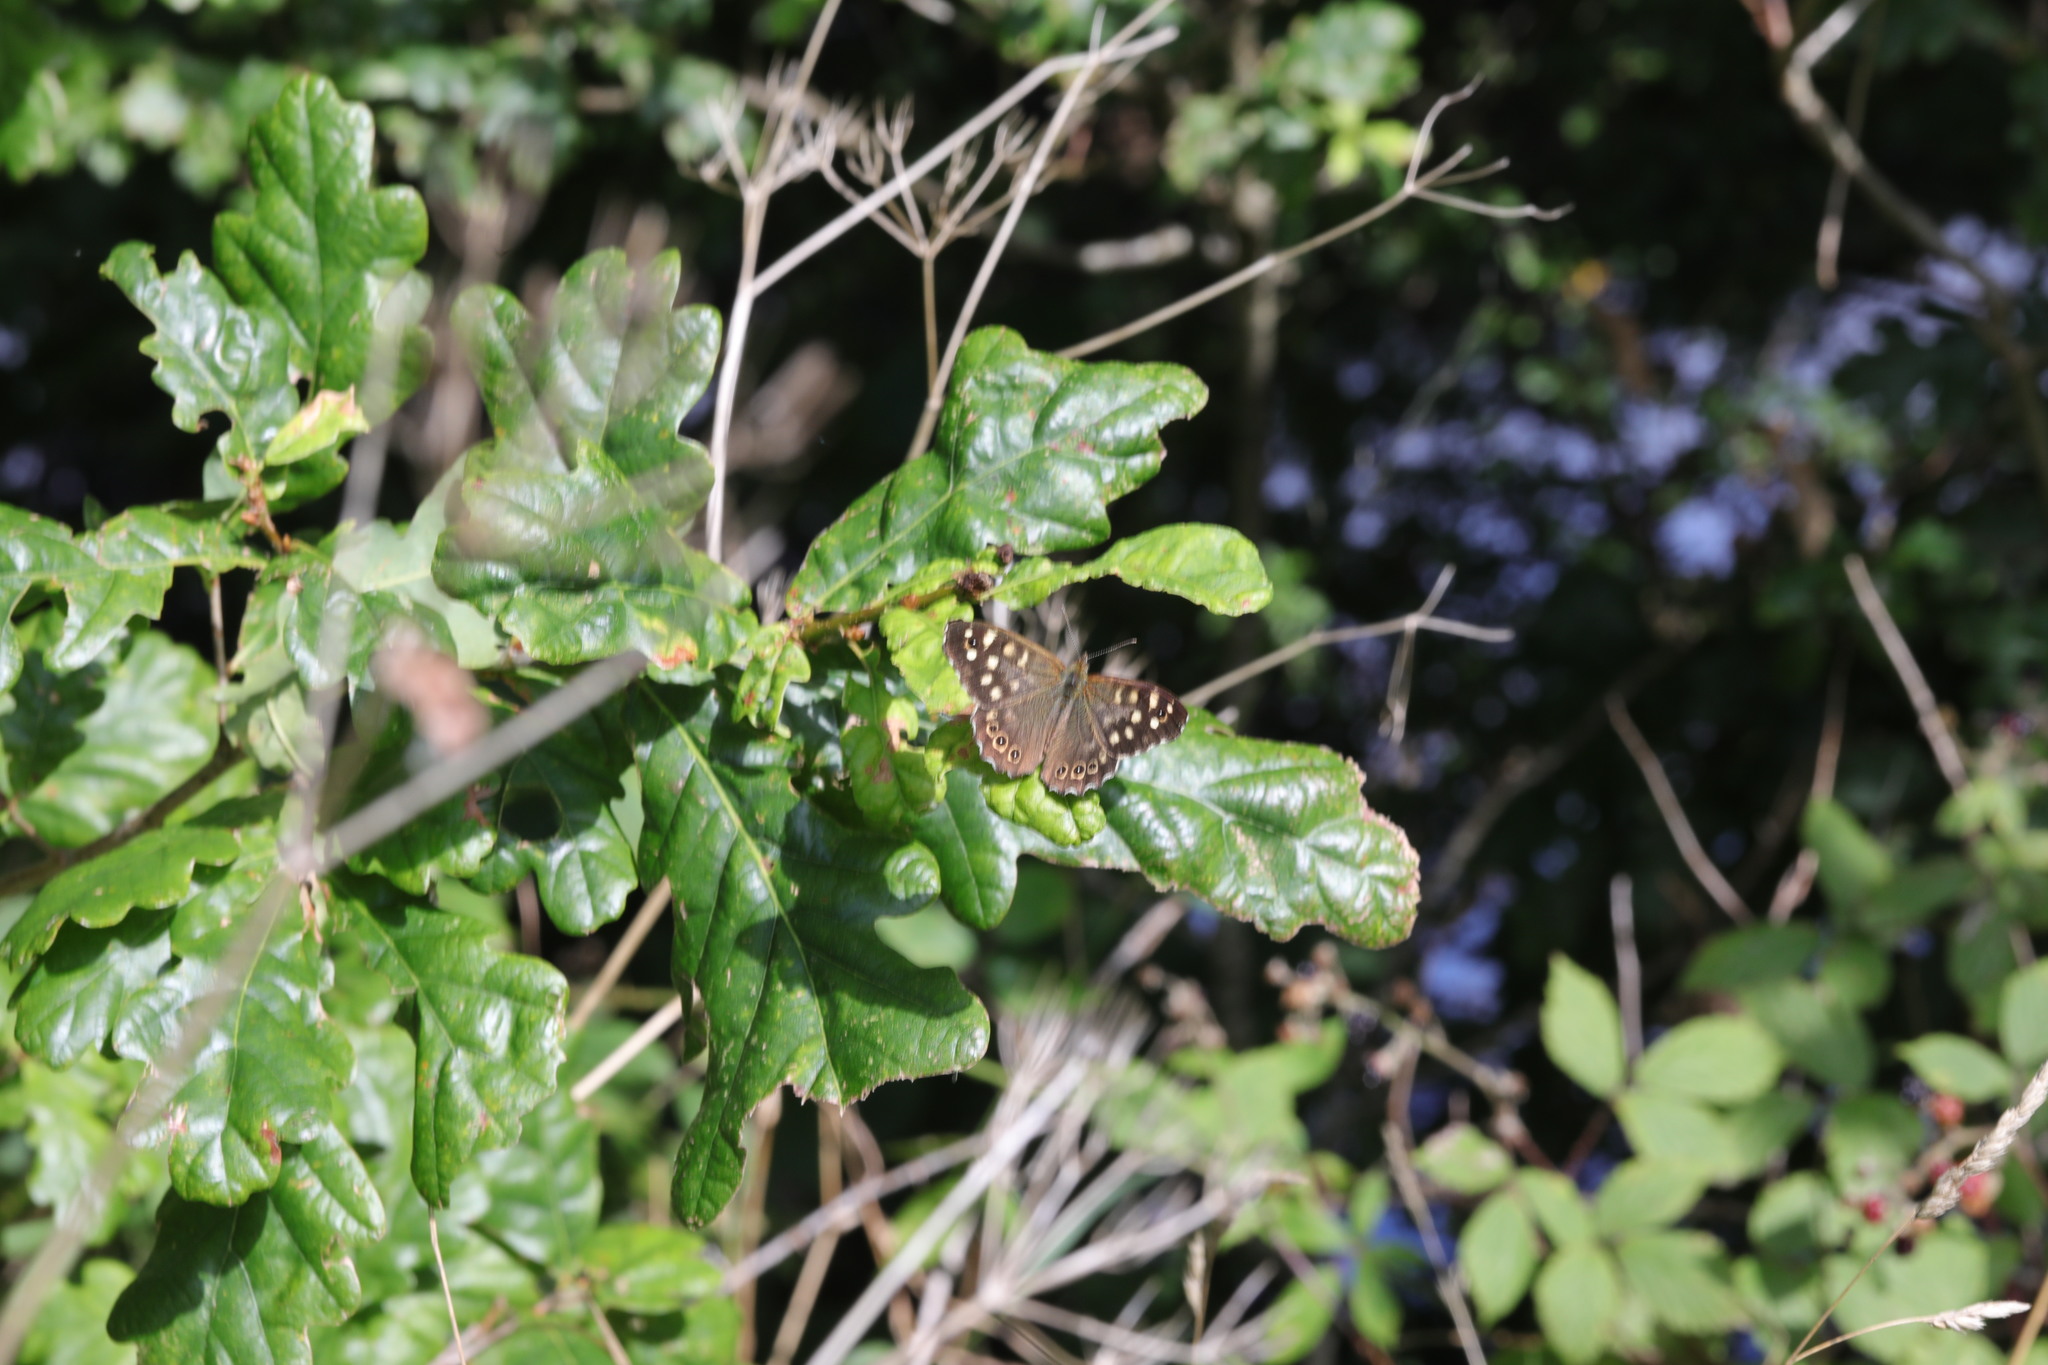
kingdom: Animalia
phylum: Arthropoda
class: Insecta
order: Lepidoptera
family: Nymphalidae
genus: Pararge
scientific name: Pararge aegeria
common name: Speckled wood
